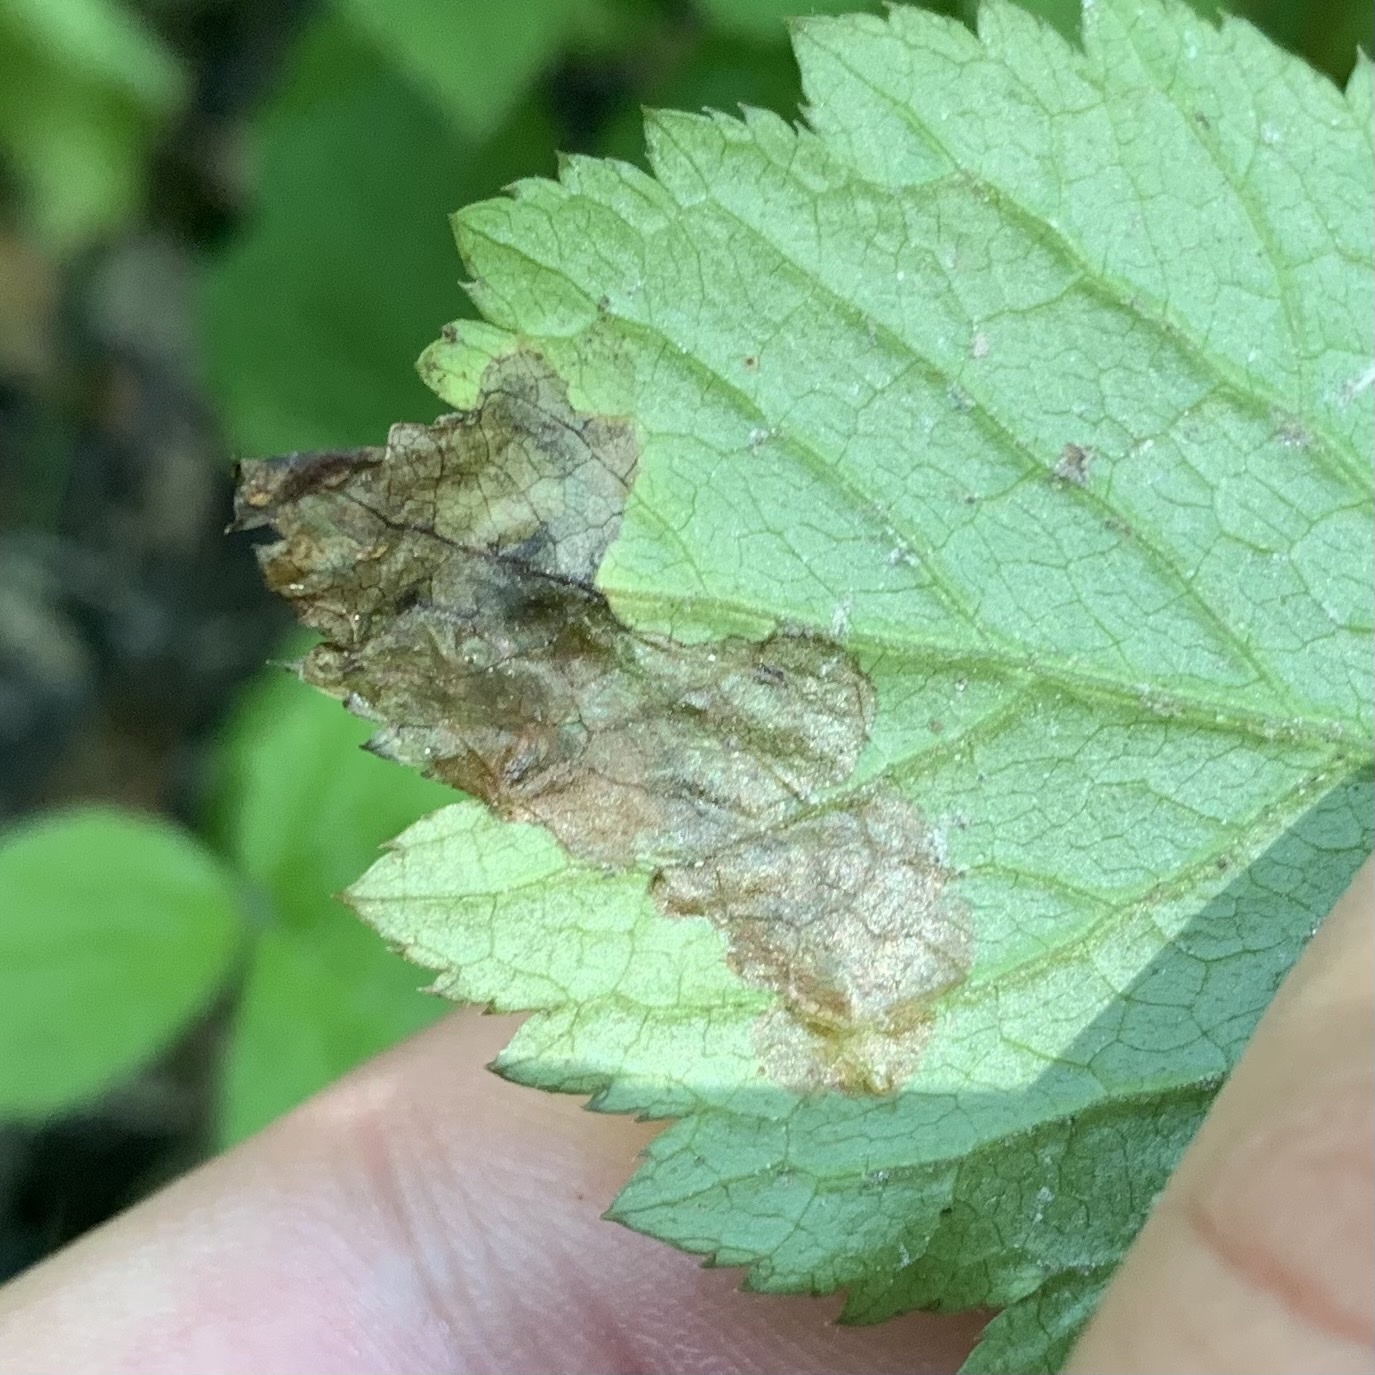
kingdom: Animalia
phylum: Arthropoda
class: Insecta
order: Diptera
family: Tephritidae
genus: Euleia
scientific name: Euleia fratria
